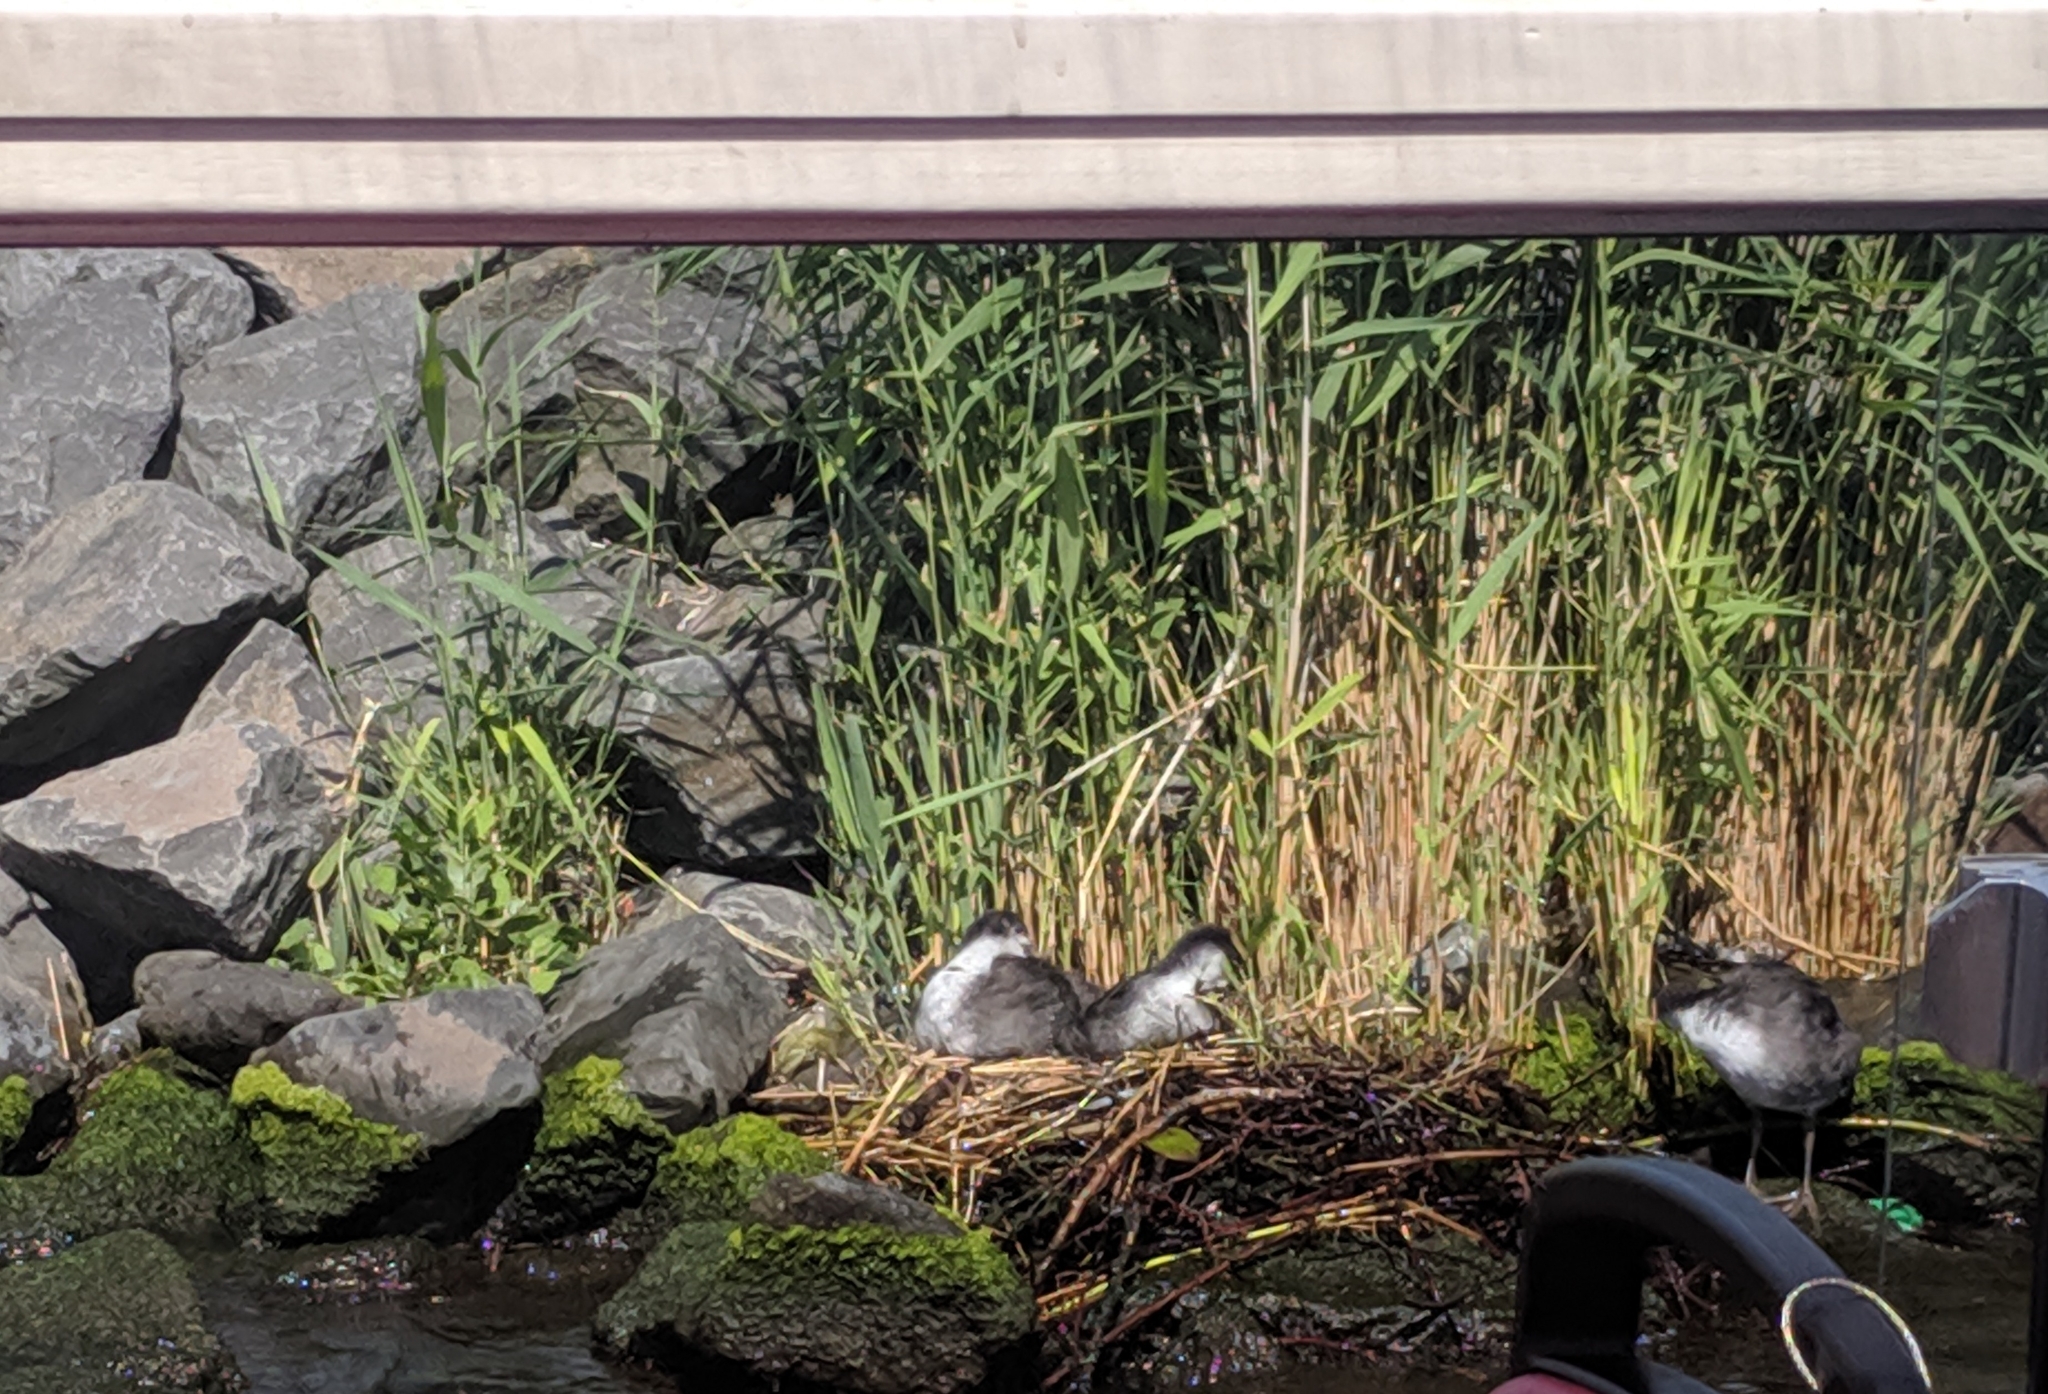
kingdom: Animalia
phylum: Chordata
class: Aves
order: Gruiformes
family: Rallidae
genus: Fulica
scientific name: Fulica atra
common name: Eurasian coot
